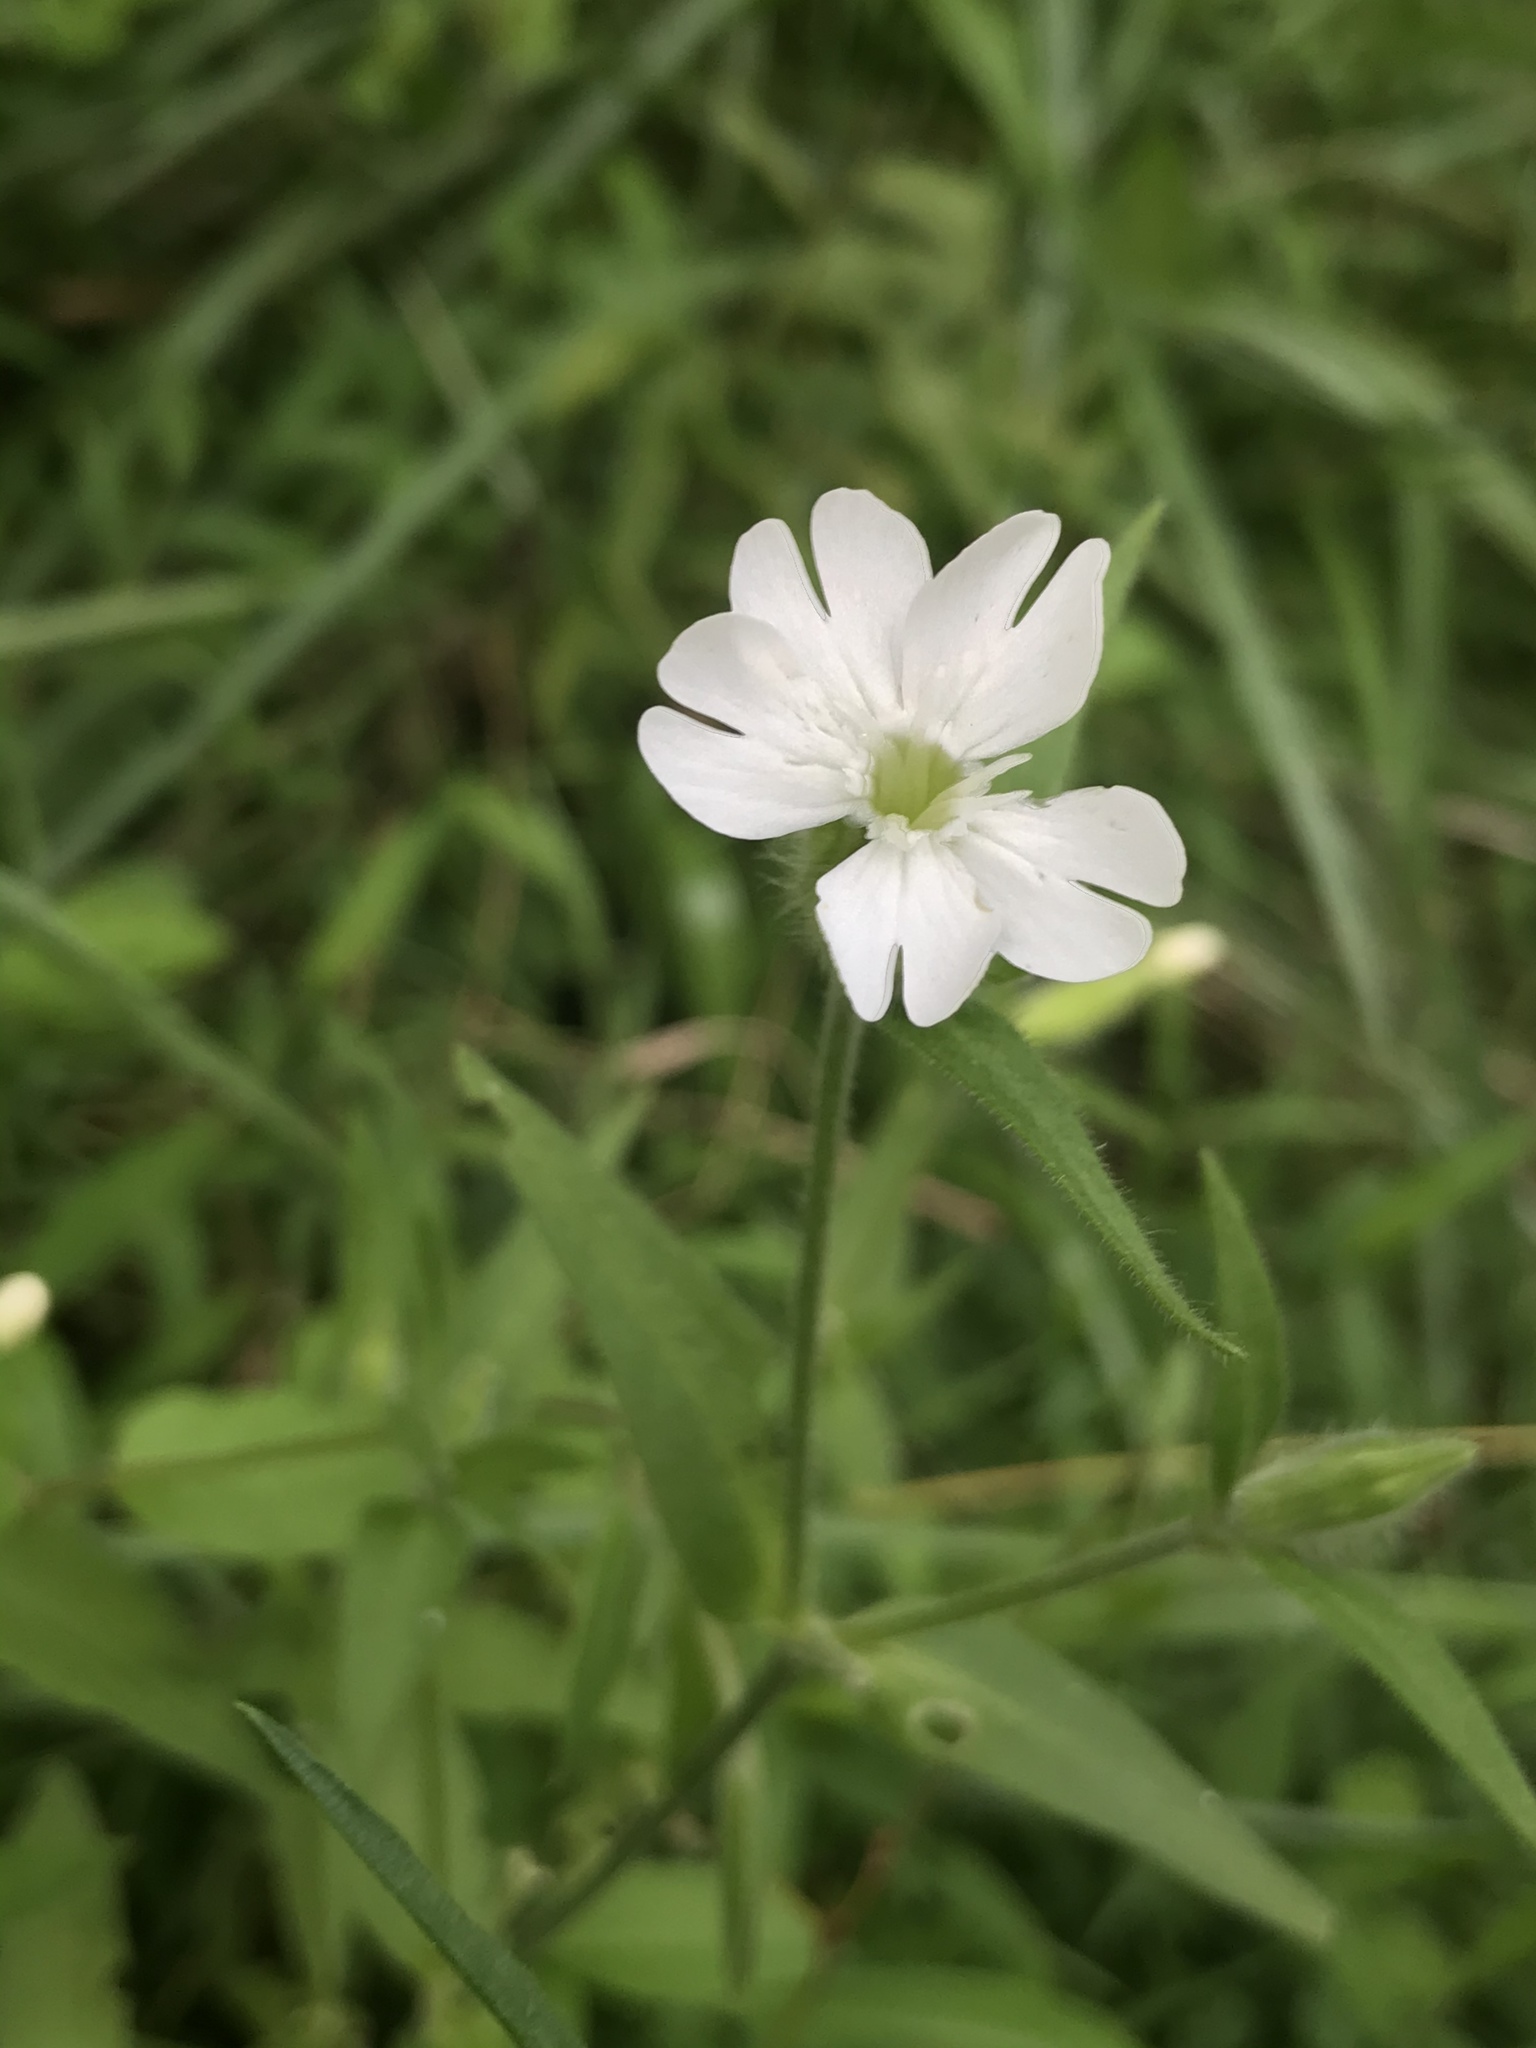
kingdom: Plantae
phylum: Tracheophyta
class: Magnoliopsida
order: Caryophyllales
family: Caryophyllaceae
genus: Silene
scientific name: Silene latifolia
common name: White campion
